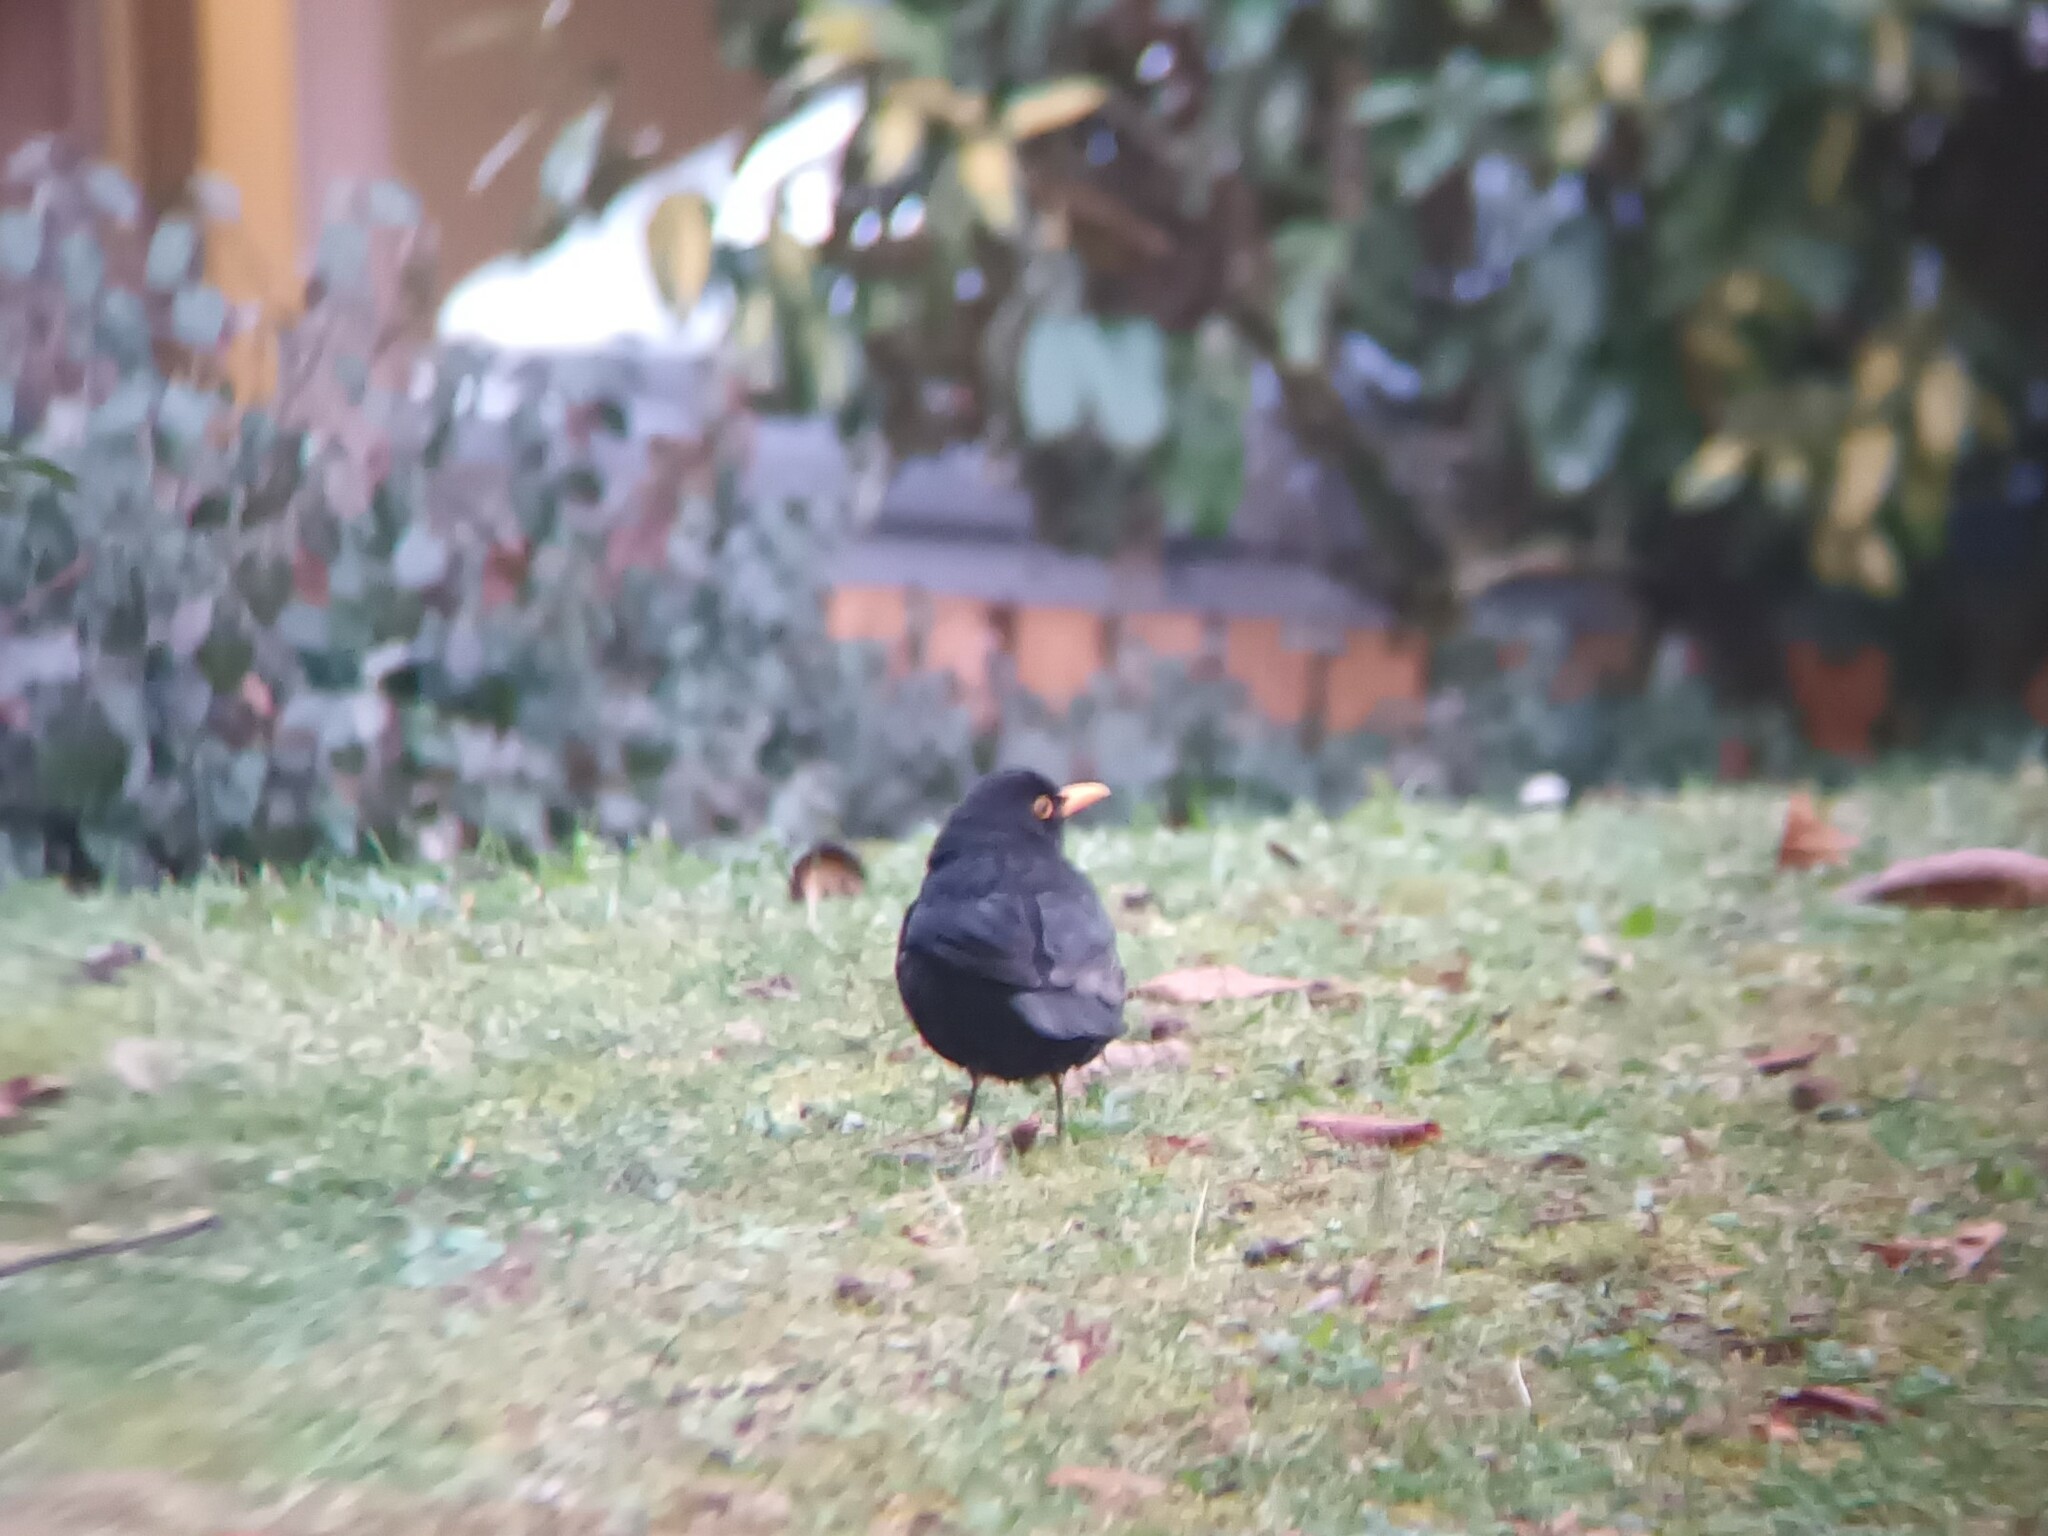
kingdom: Animalia
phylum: Chordata
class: Aves
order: Passeriformes
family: Turdidae
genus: Turdus
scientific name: Turdus merula
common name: Common blackbird
